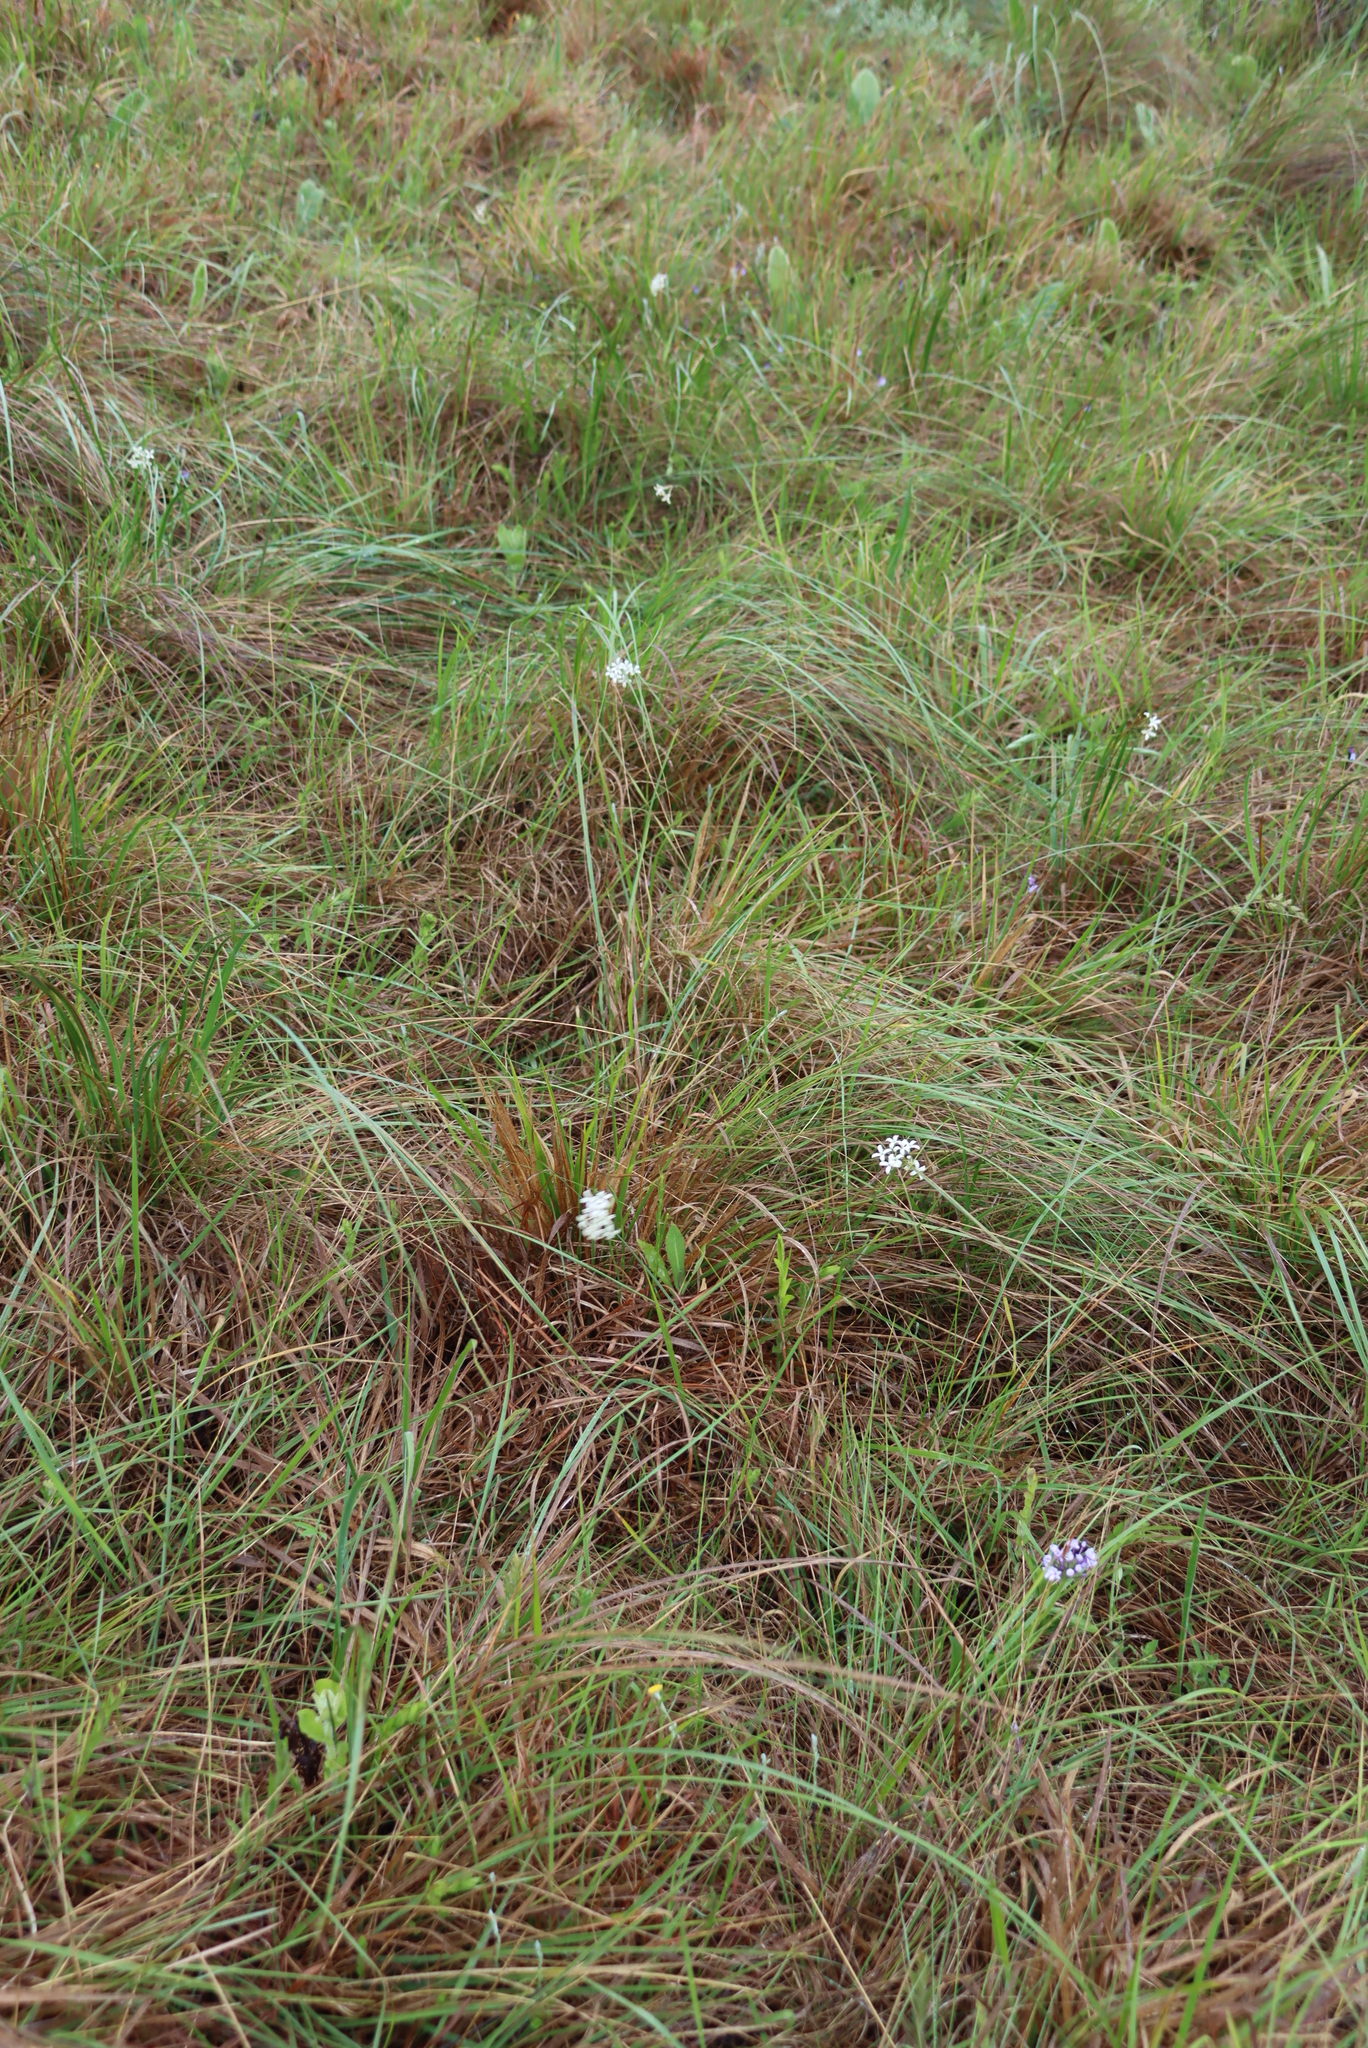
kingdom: Plantae
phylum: Tracheophyta
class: Magnoliopsida
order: Gentianales
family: Rubiaceae
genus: Kohautia
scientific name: Kohautia amatymbica
